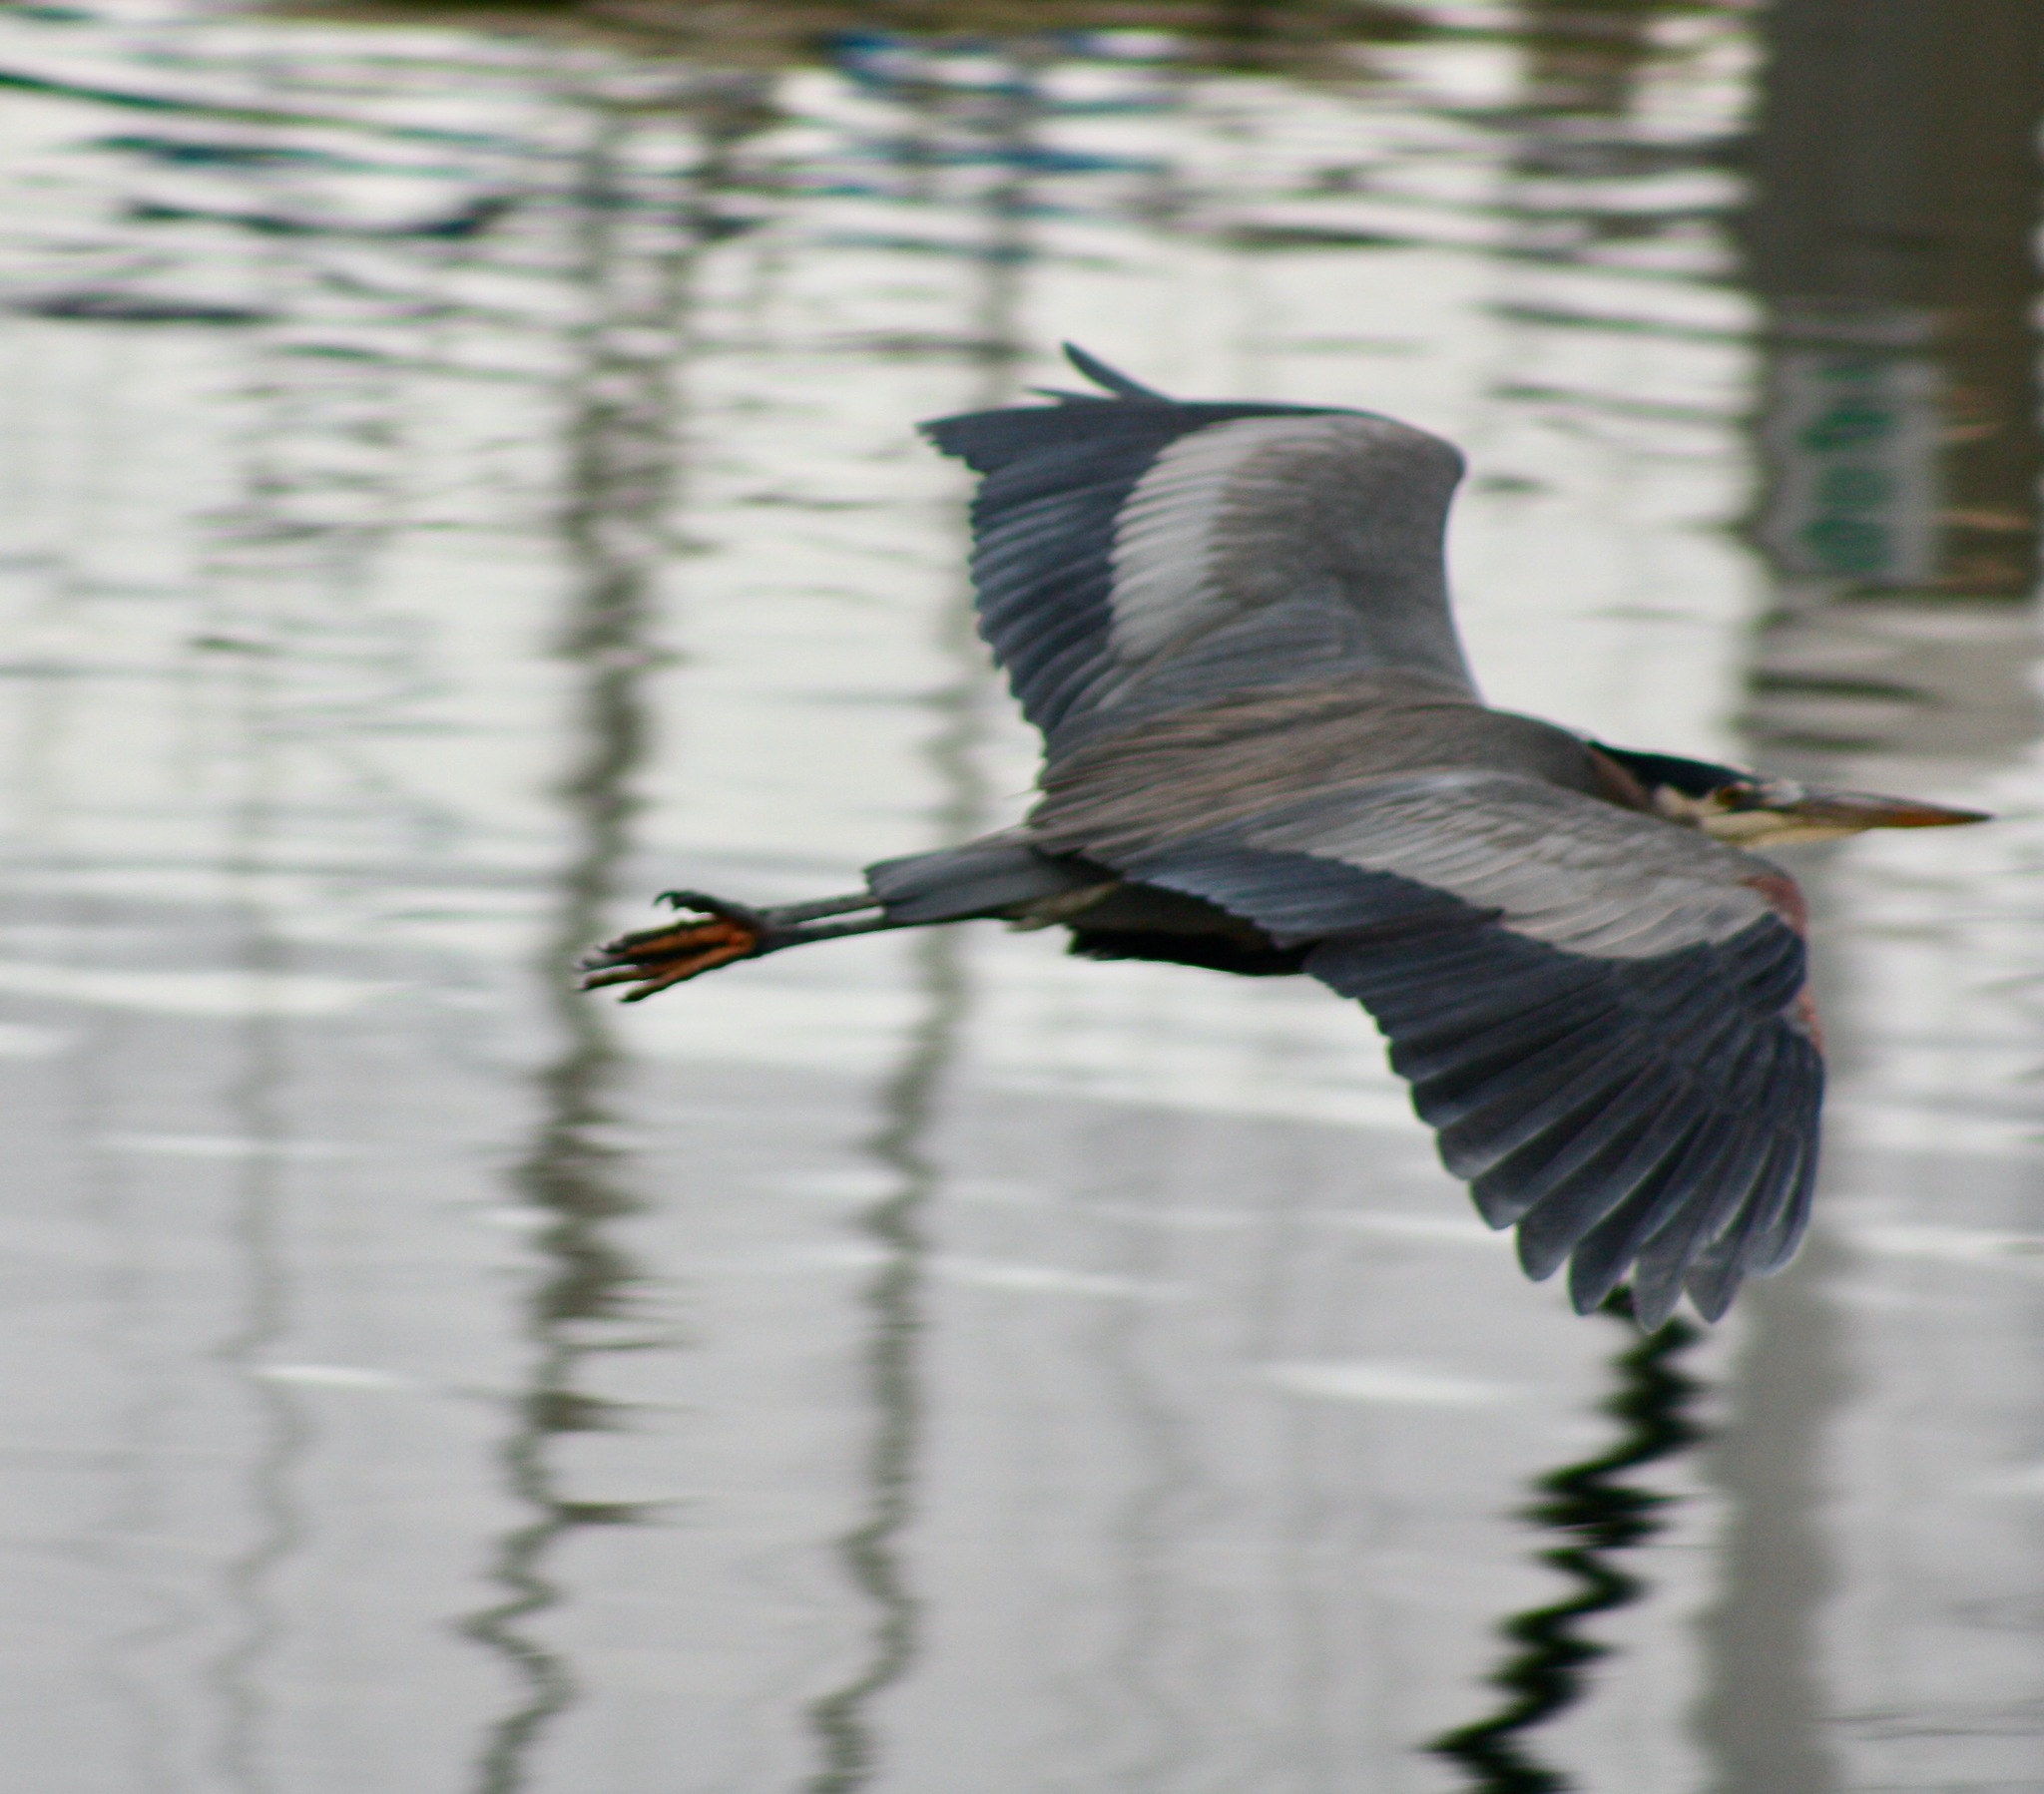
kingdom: Animalia
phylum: Chordata
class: Aves
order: Pelecaniformes
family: Ardeidae
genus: Ardea
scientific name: Ardea herodias
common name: Great blue heron
